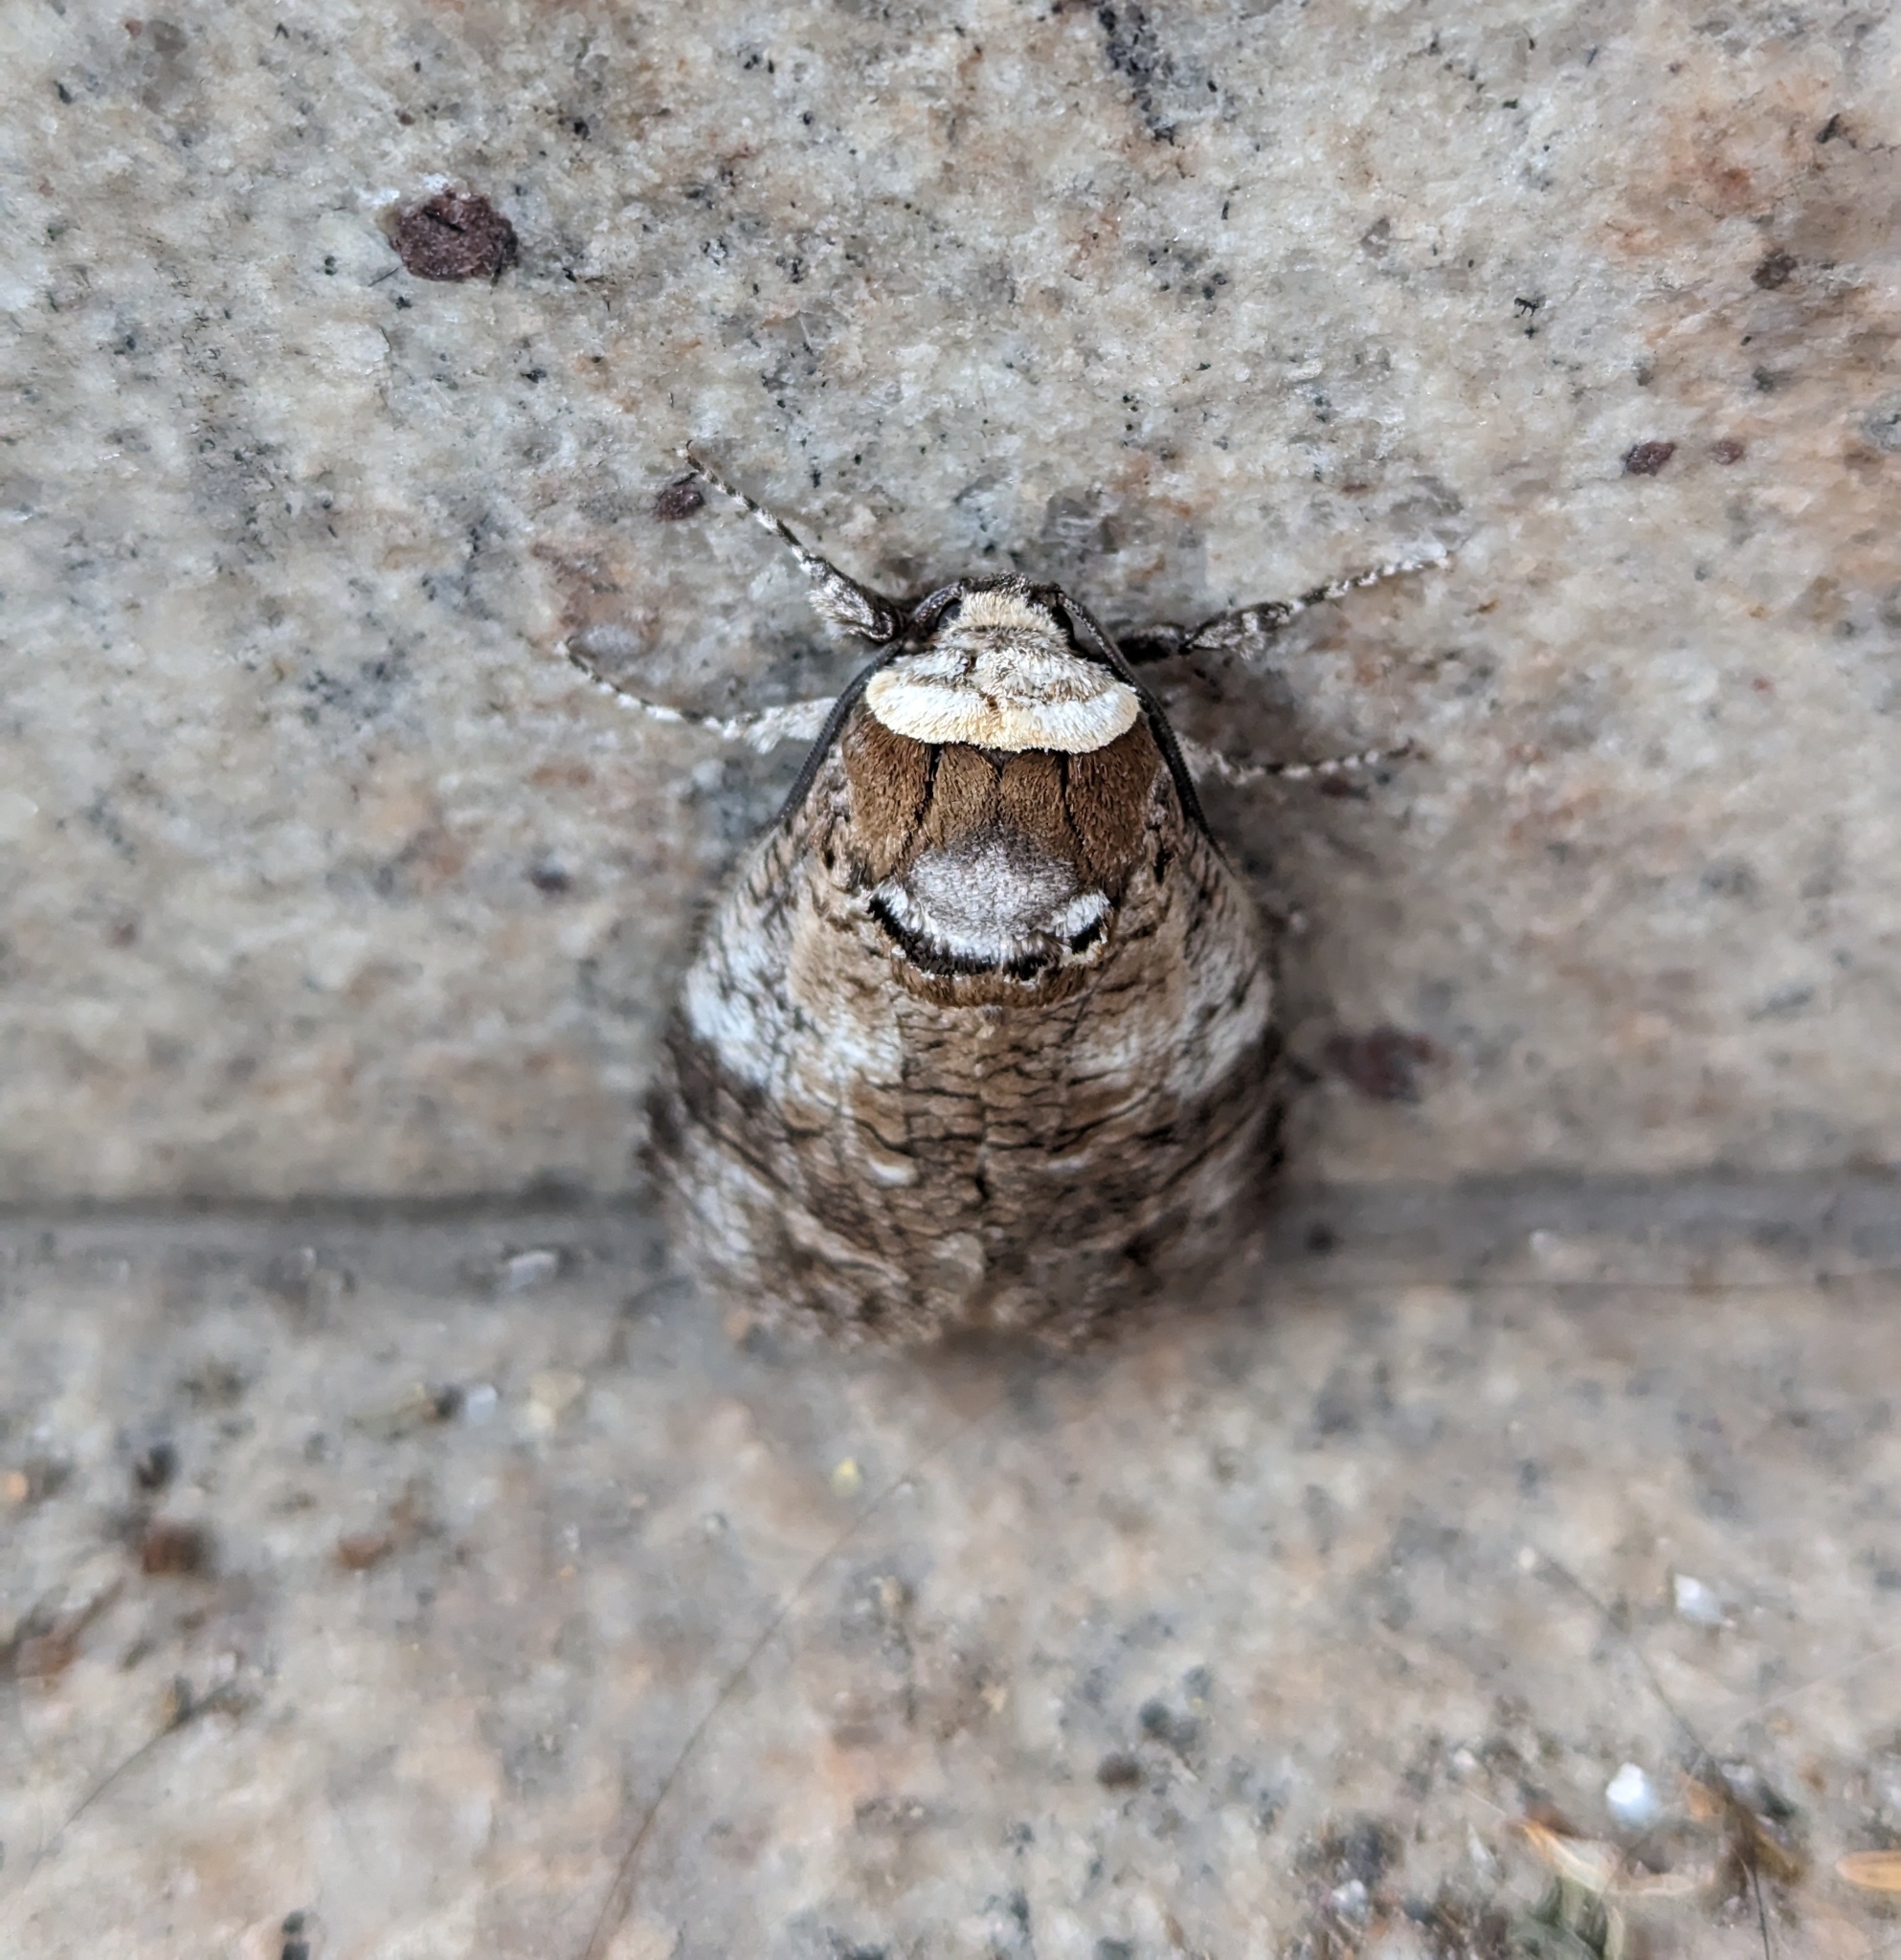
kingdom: Animalia
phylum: Arthropoda
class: Insecta
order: Lepidoptera
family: Cossidae
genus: Cossus
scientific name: Cossus cossus
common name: Goat moth
